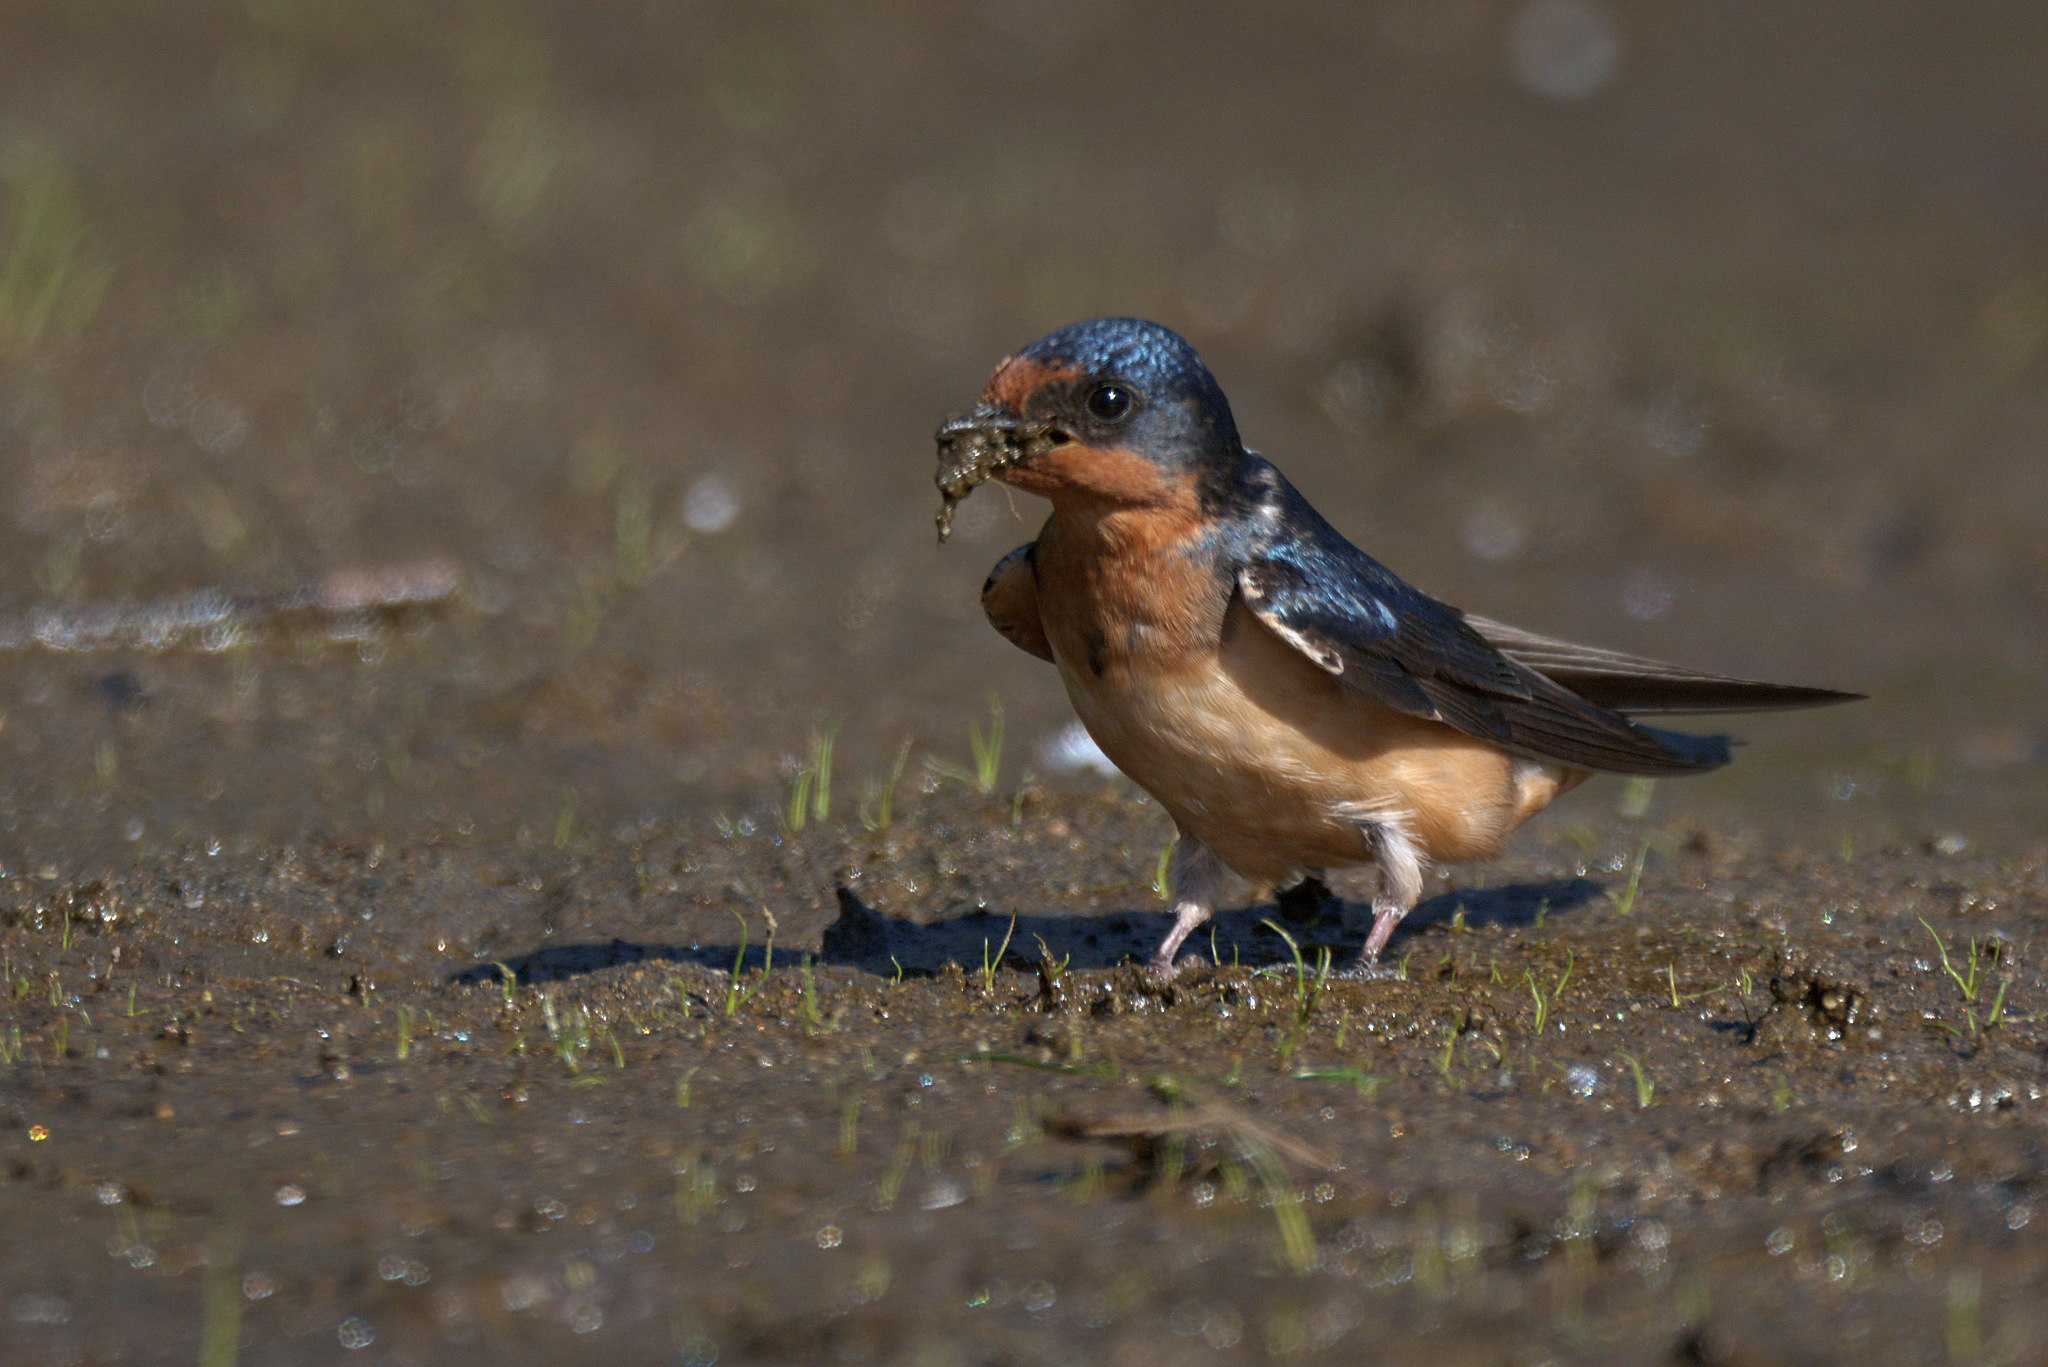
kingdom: Animalia
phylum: Chordata
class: Aves
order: Passeriformes
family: Hirundinidae
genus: Hirundo
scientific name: Hirundo rustica
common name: Barn swallow
